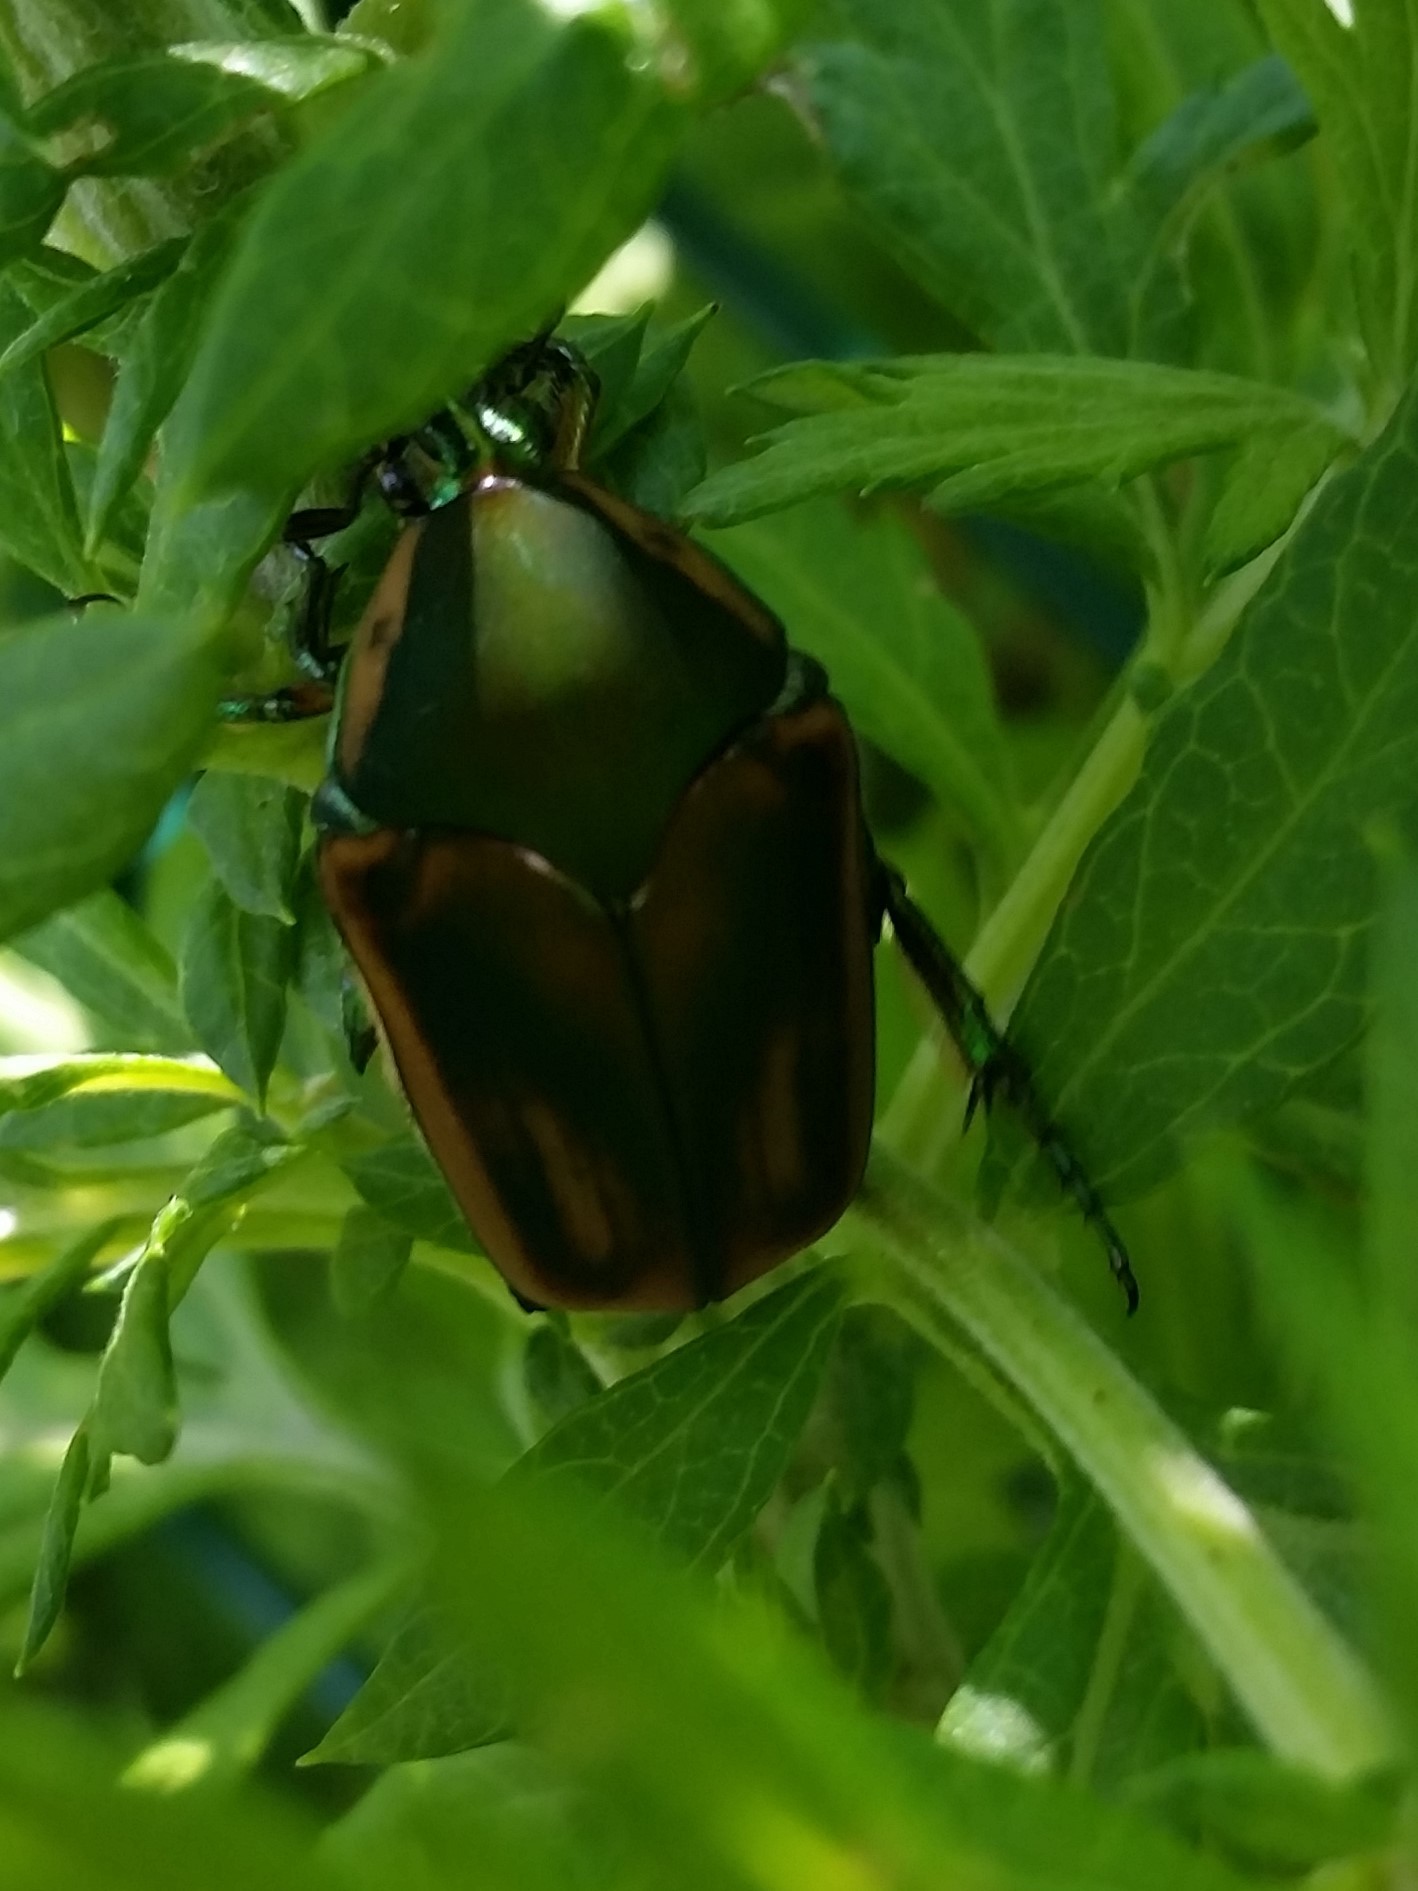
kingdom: Animalia
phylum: Arthropoda
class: Insecta
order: Coleoptera
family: Scarabaeidae
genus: Cotinis
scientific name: Cotinis nitida
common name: Common green june beetle
